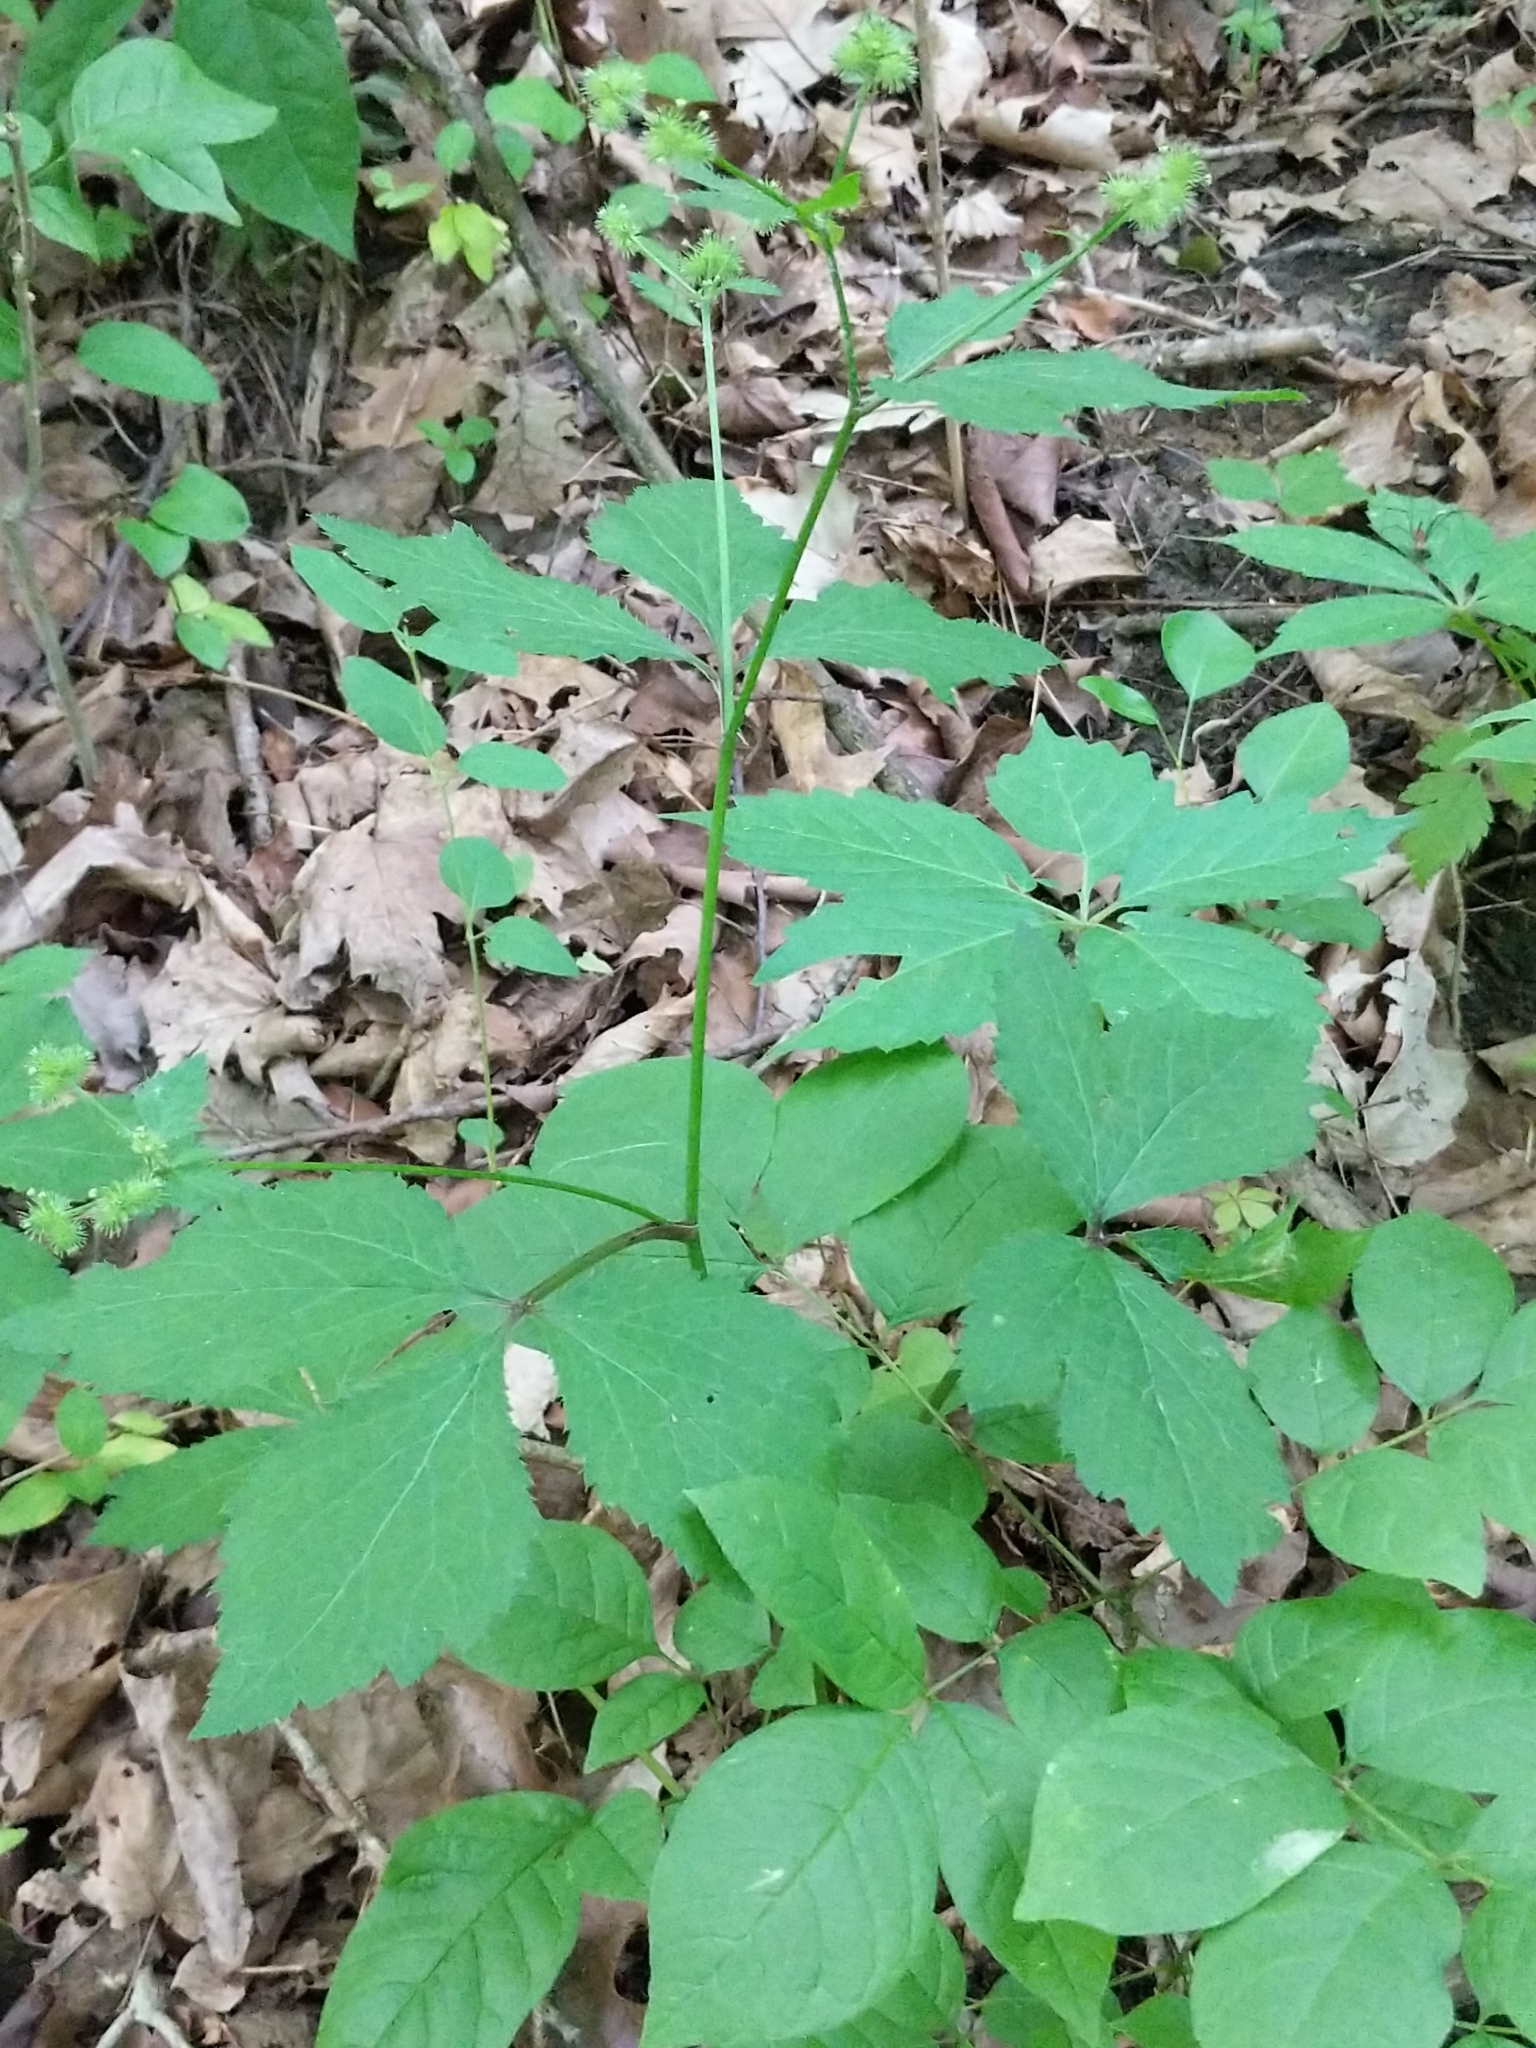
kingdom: Plantae
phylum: Tracheophyta
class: Magnoliopsida
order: Apiales
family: Apiaceae
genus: Sanicula
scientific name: Sanicula trifoliata
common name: Beaked sanicle
